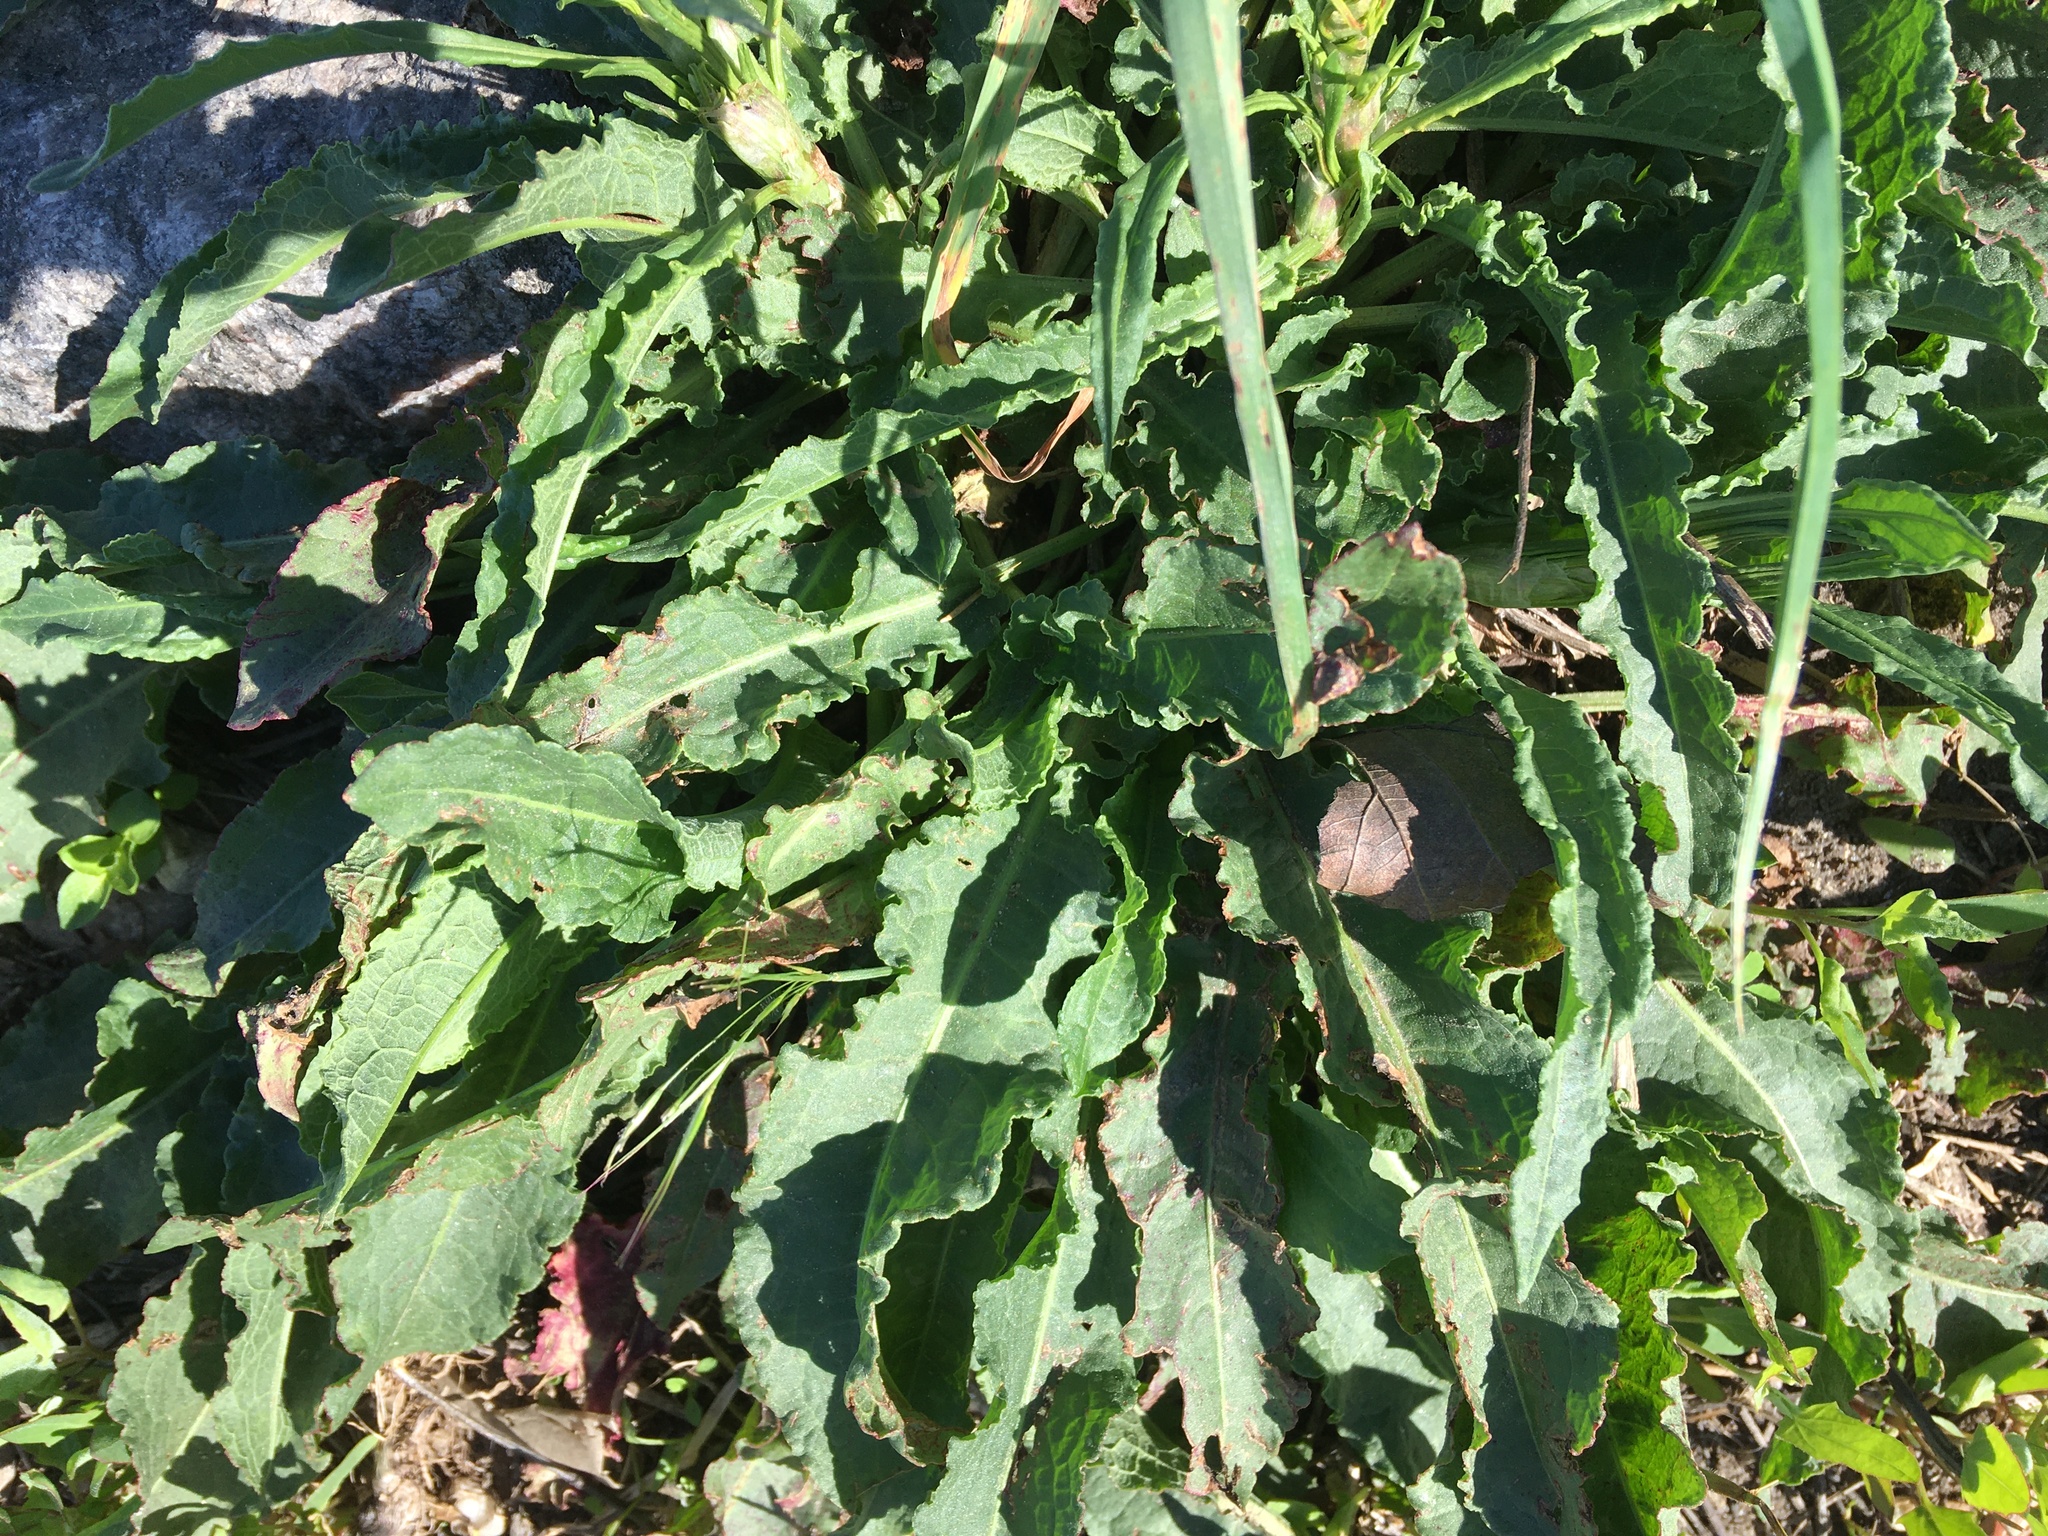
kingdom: Plantae
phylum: Tracheophyta
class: Magnoliopsida
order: Caryophyllales
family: Polygonaceae
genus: Rumex
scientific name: Rumex crispus
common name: Curled dock
